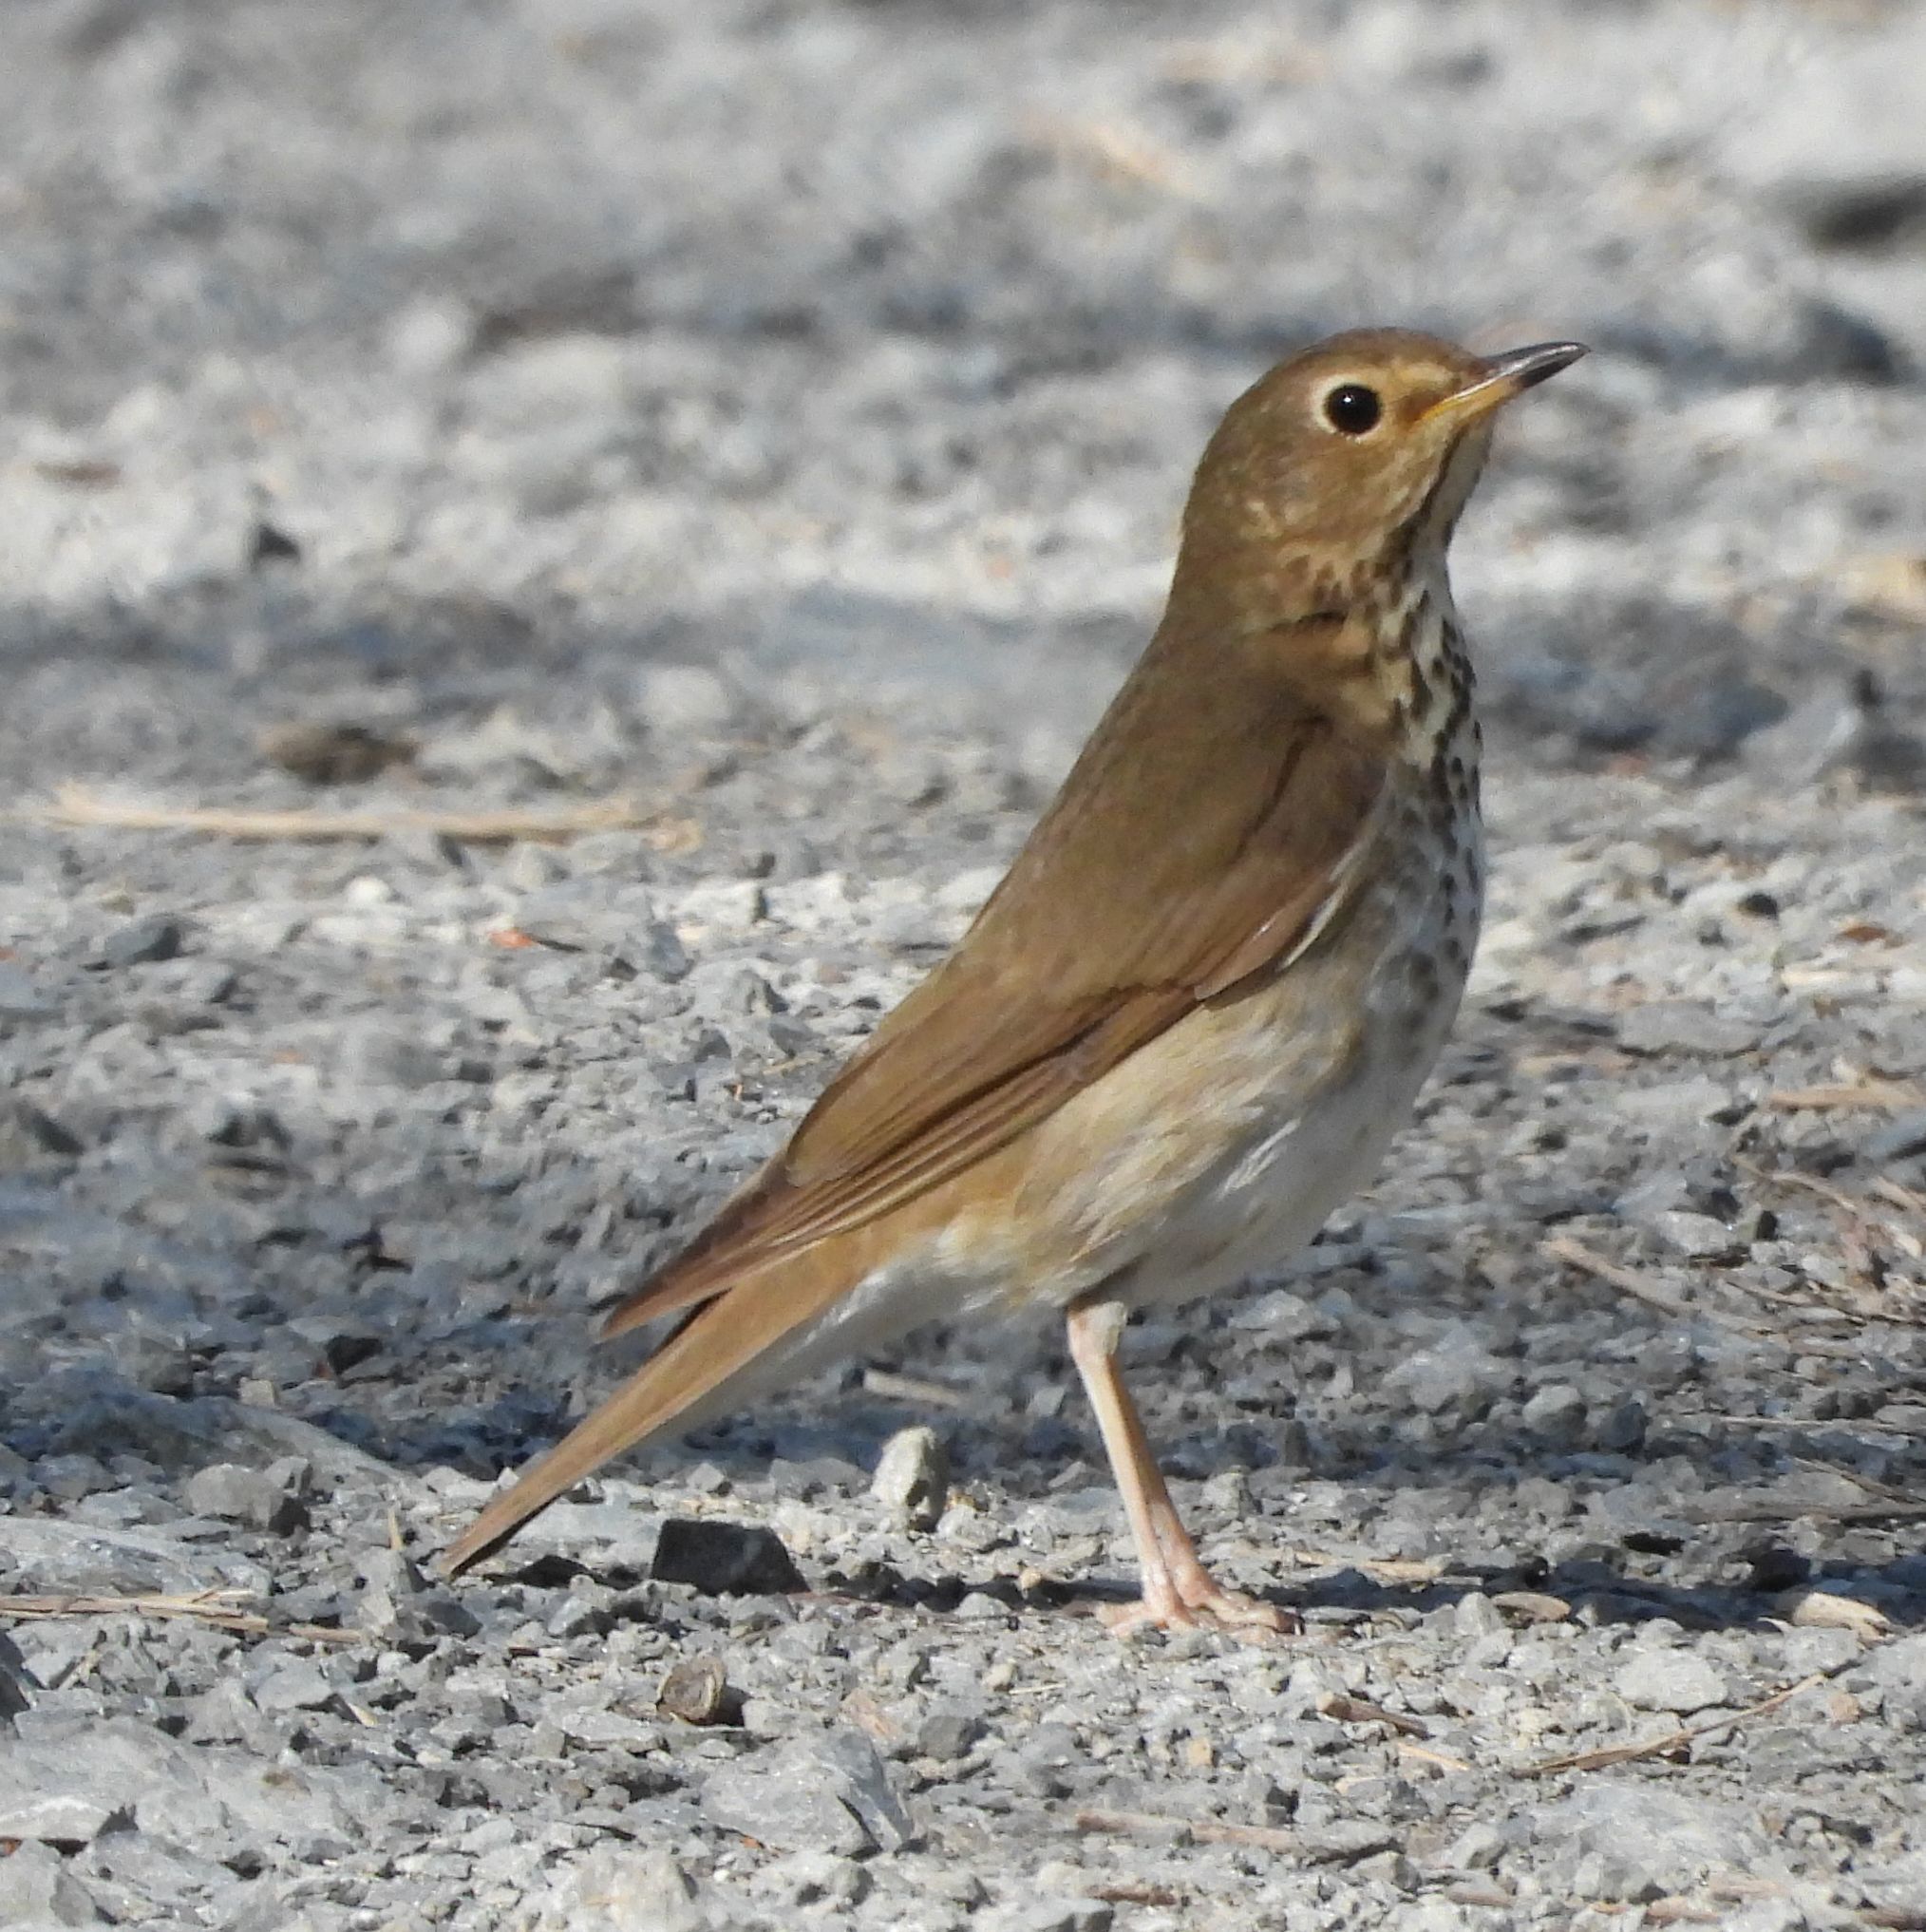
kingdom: Animalia
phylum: Chordata
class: Aves
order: Passeriformes
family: Turdidae
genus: Catharus
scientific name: Catharus ustulatus
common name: Swainson's thrush
